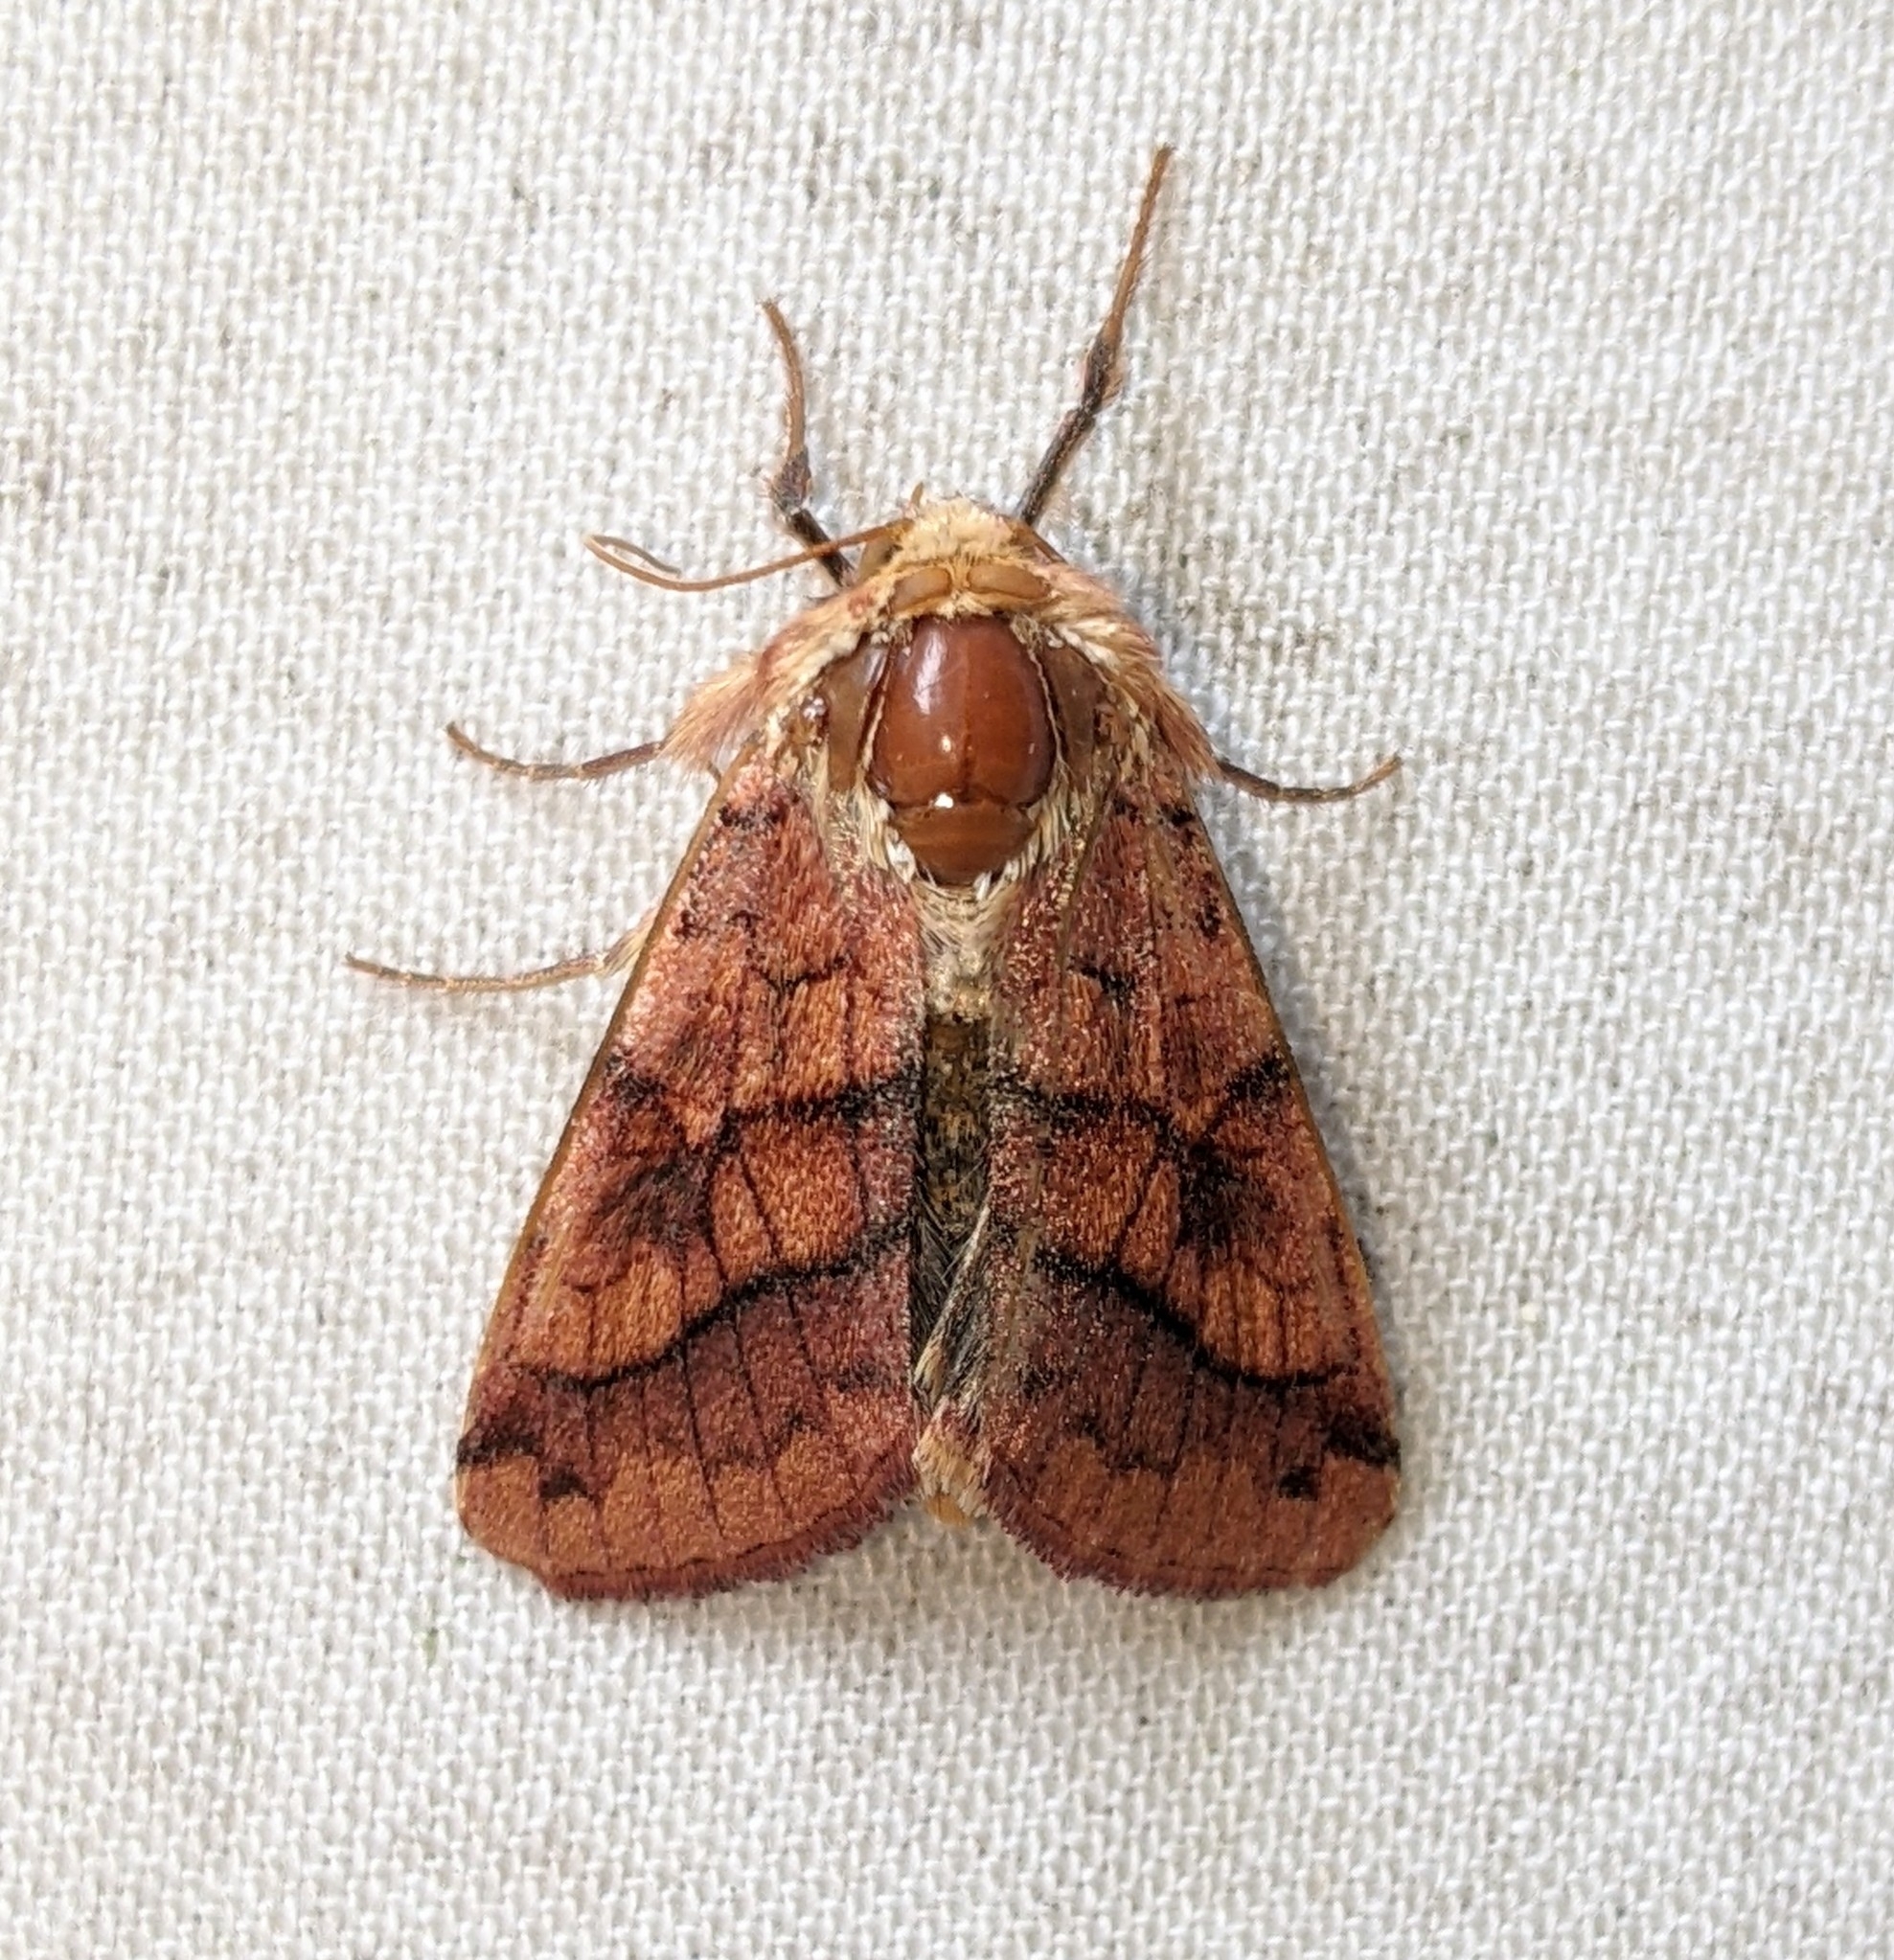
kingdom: Animalia
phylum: Arthropoda
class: Insecta
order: Lepidoptera
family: Noctuidae
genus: Pyrrhia
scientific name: Pyrrhia exprimens
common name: Purple-lined sallow
